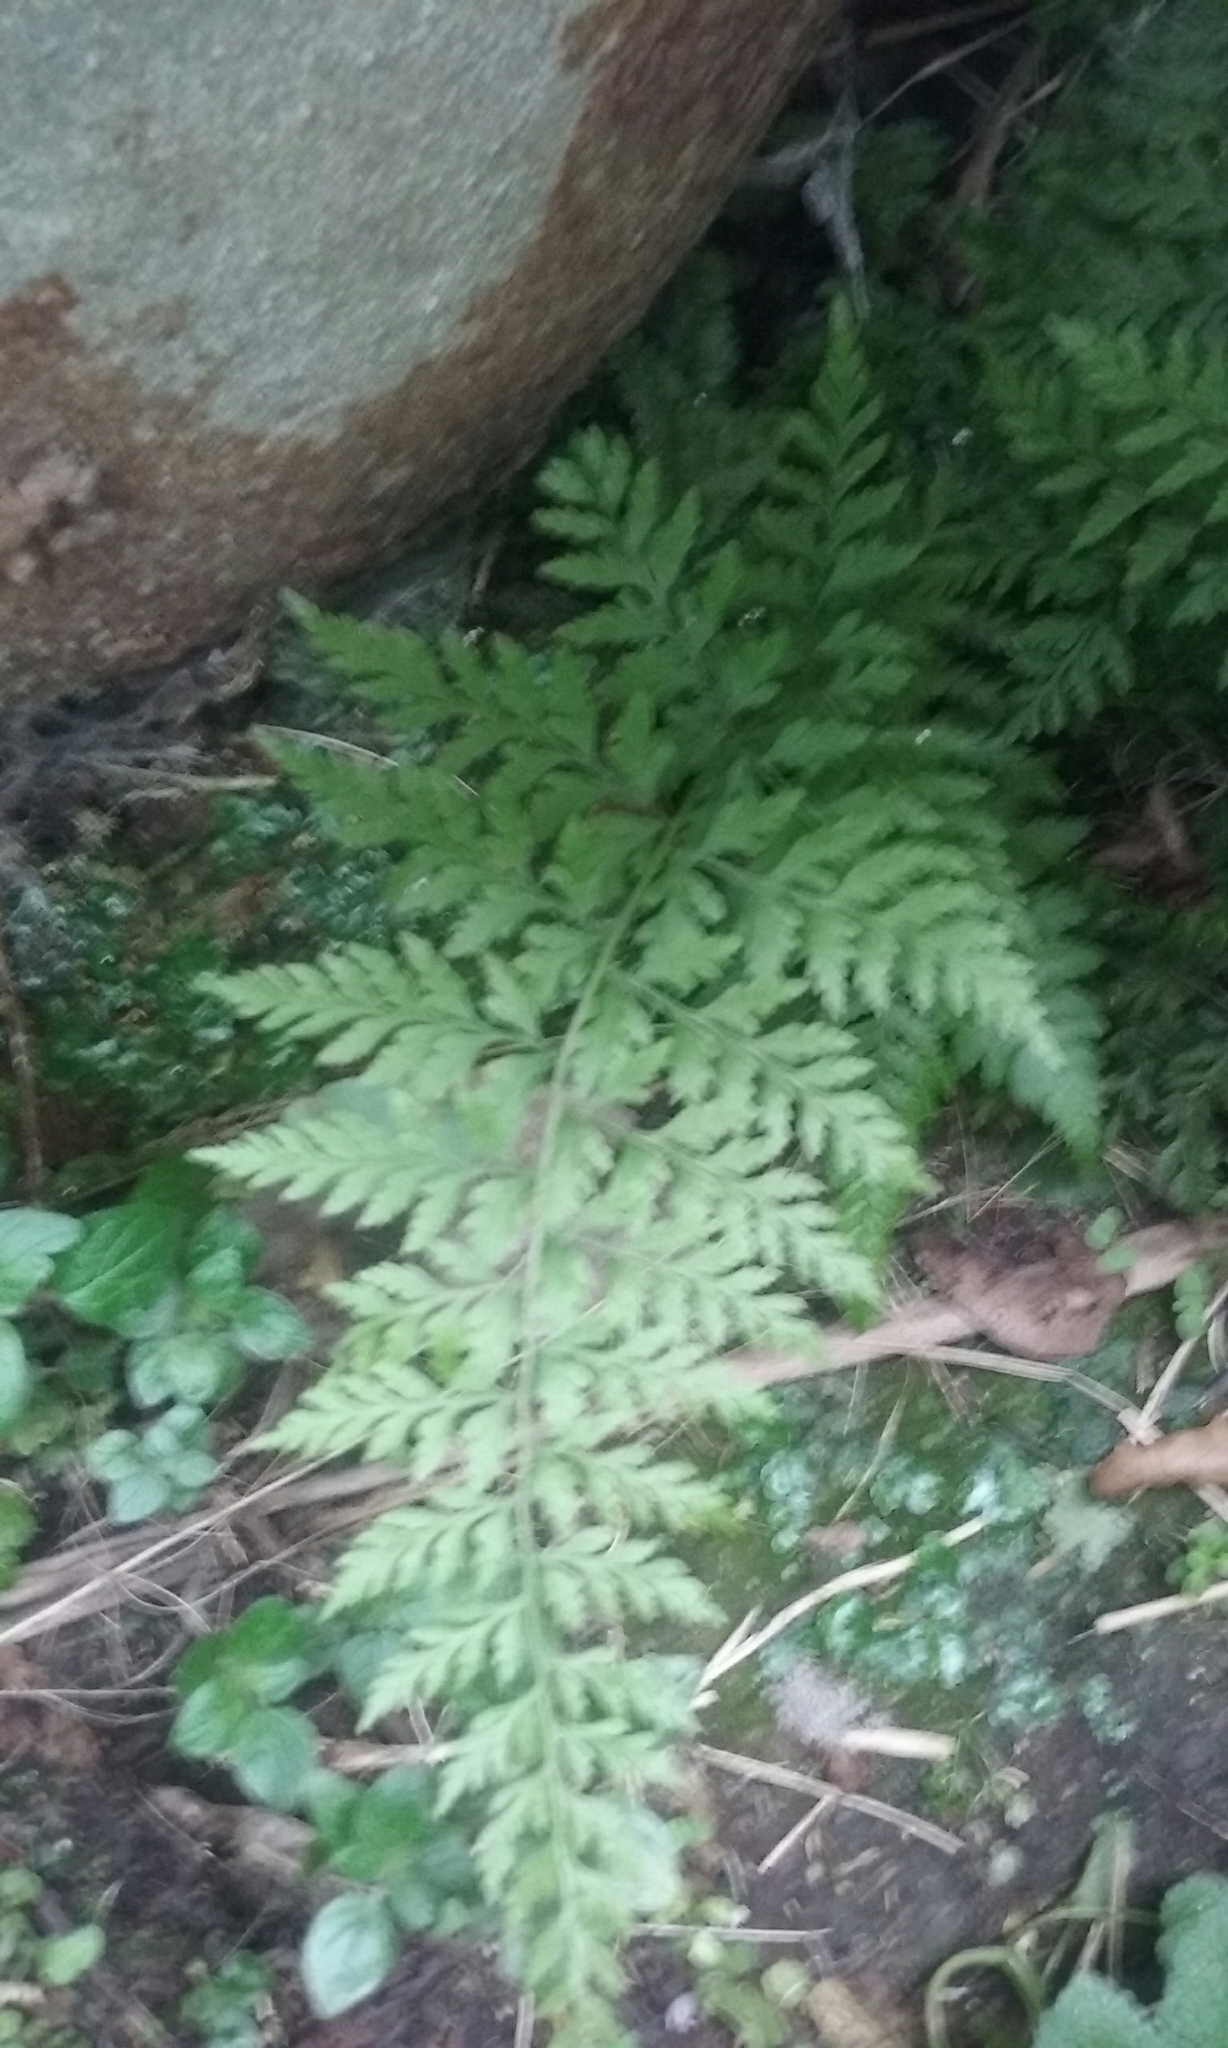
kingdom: Plantae
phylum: Tracheophyta
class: Polypodiopsida
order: Polypodiales
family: Cystopteridaceae
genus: Cystopteris
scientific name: Cystopteris fragilis
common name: Brittle bladder fern
